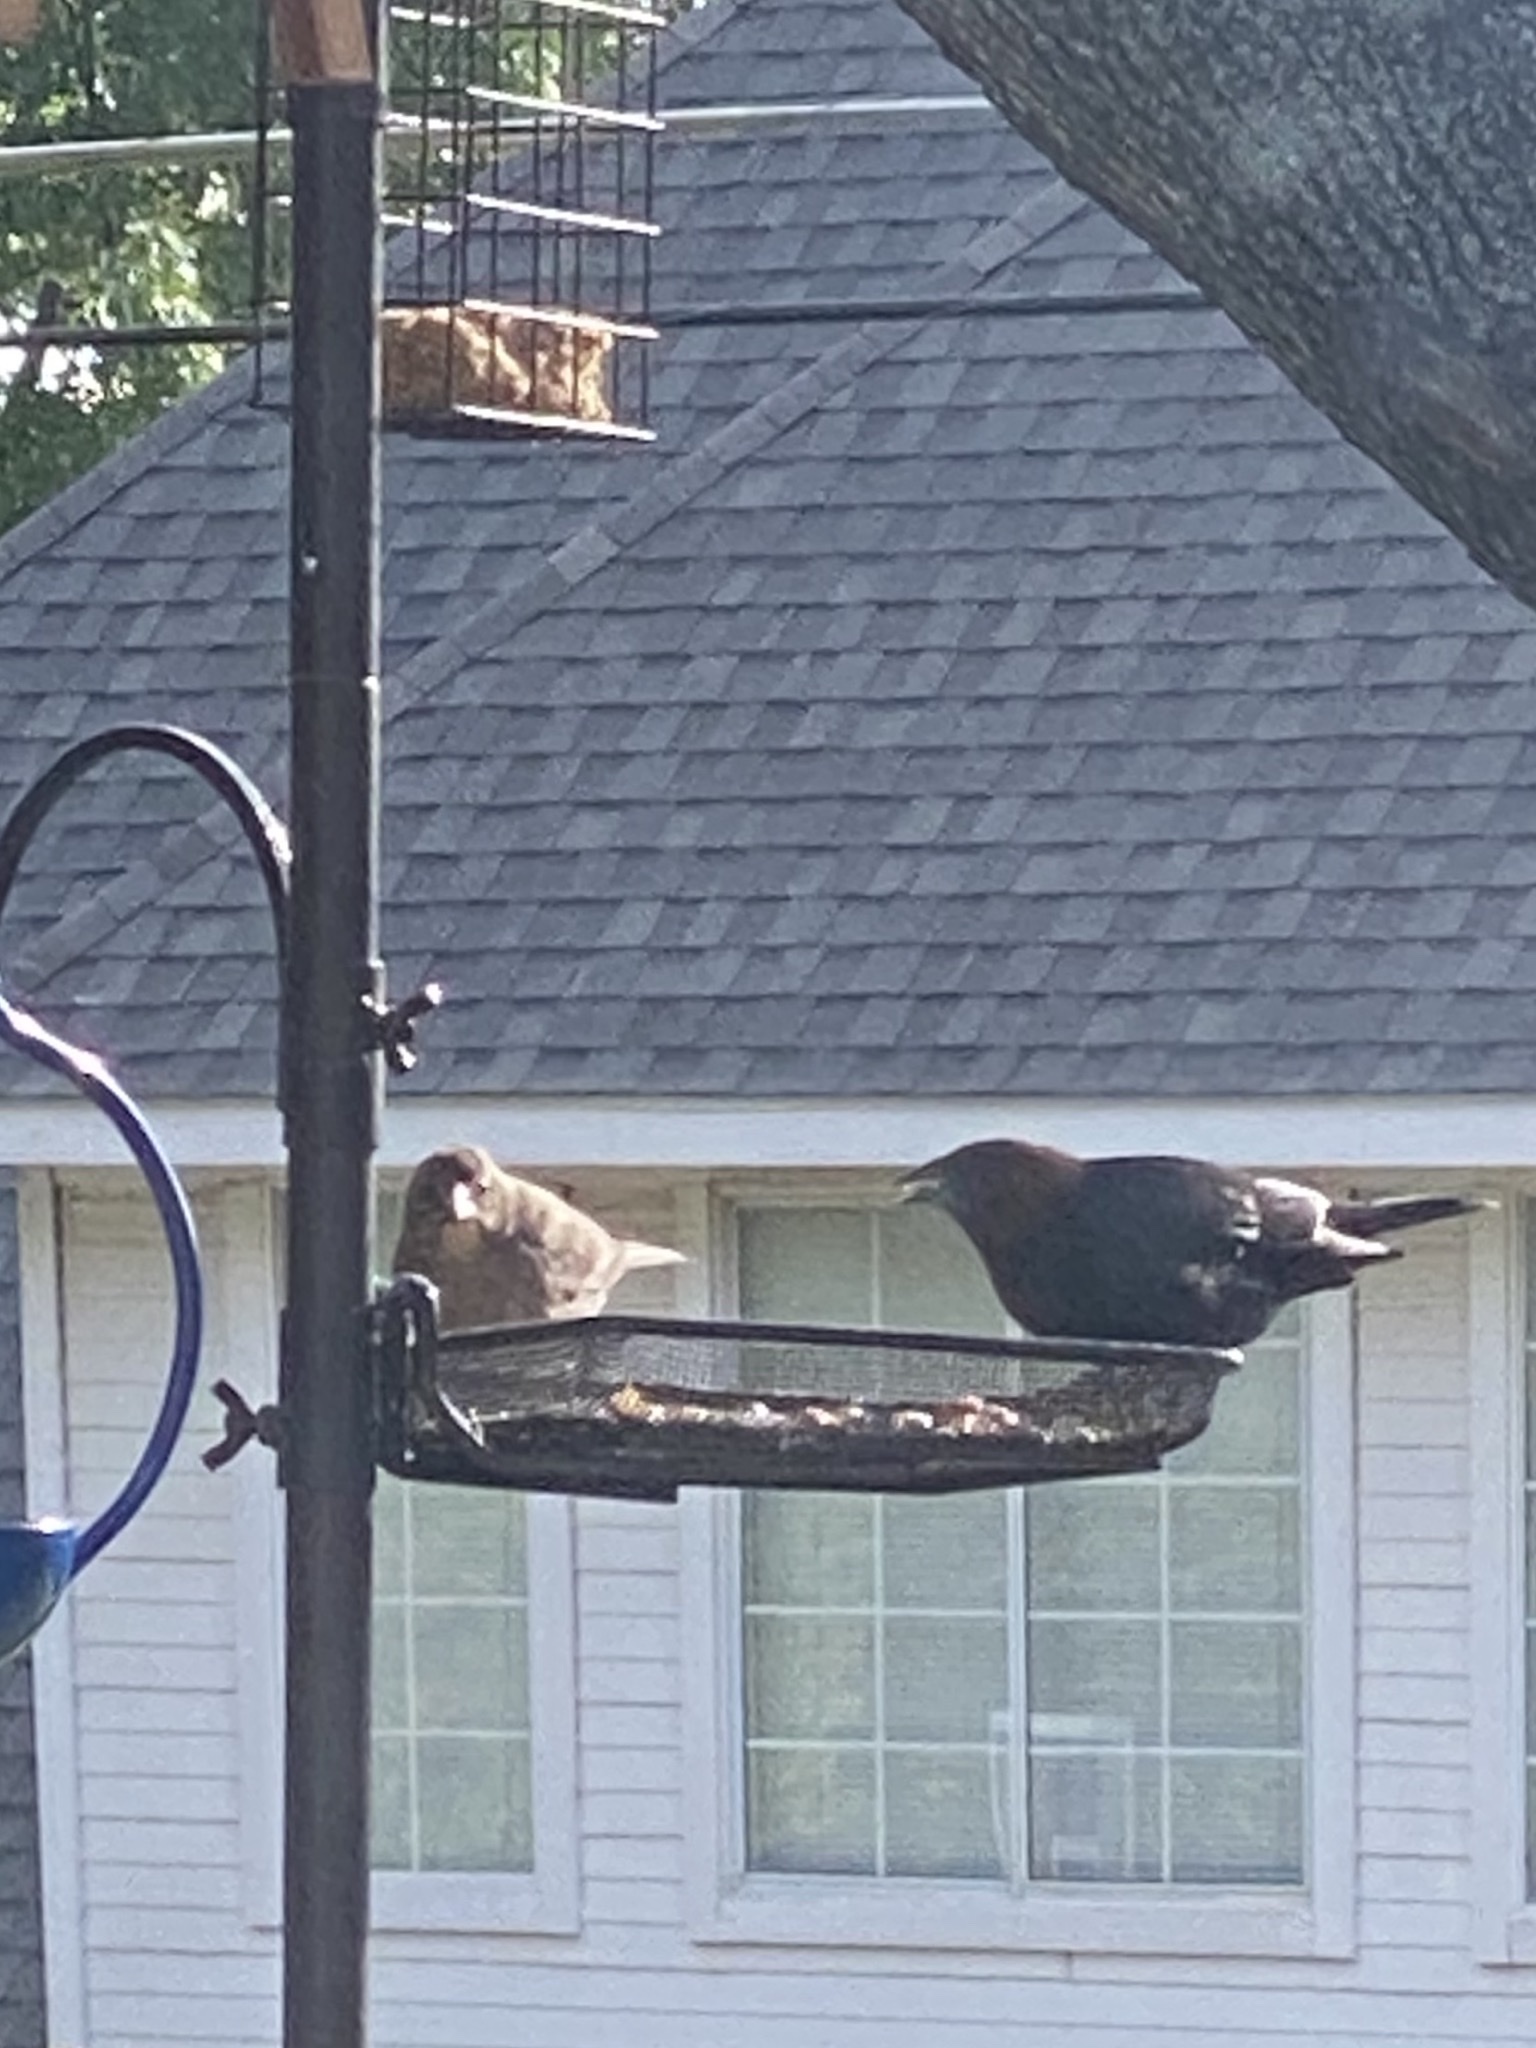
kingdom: Animalia
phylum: Chordata
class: Aves
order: Passeriformes
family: Icteridae
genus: Molothrus
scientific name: Molothrus ater
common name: Brown-headed cowbird
